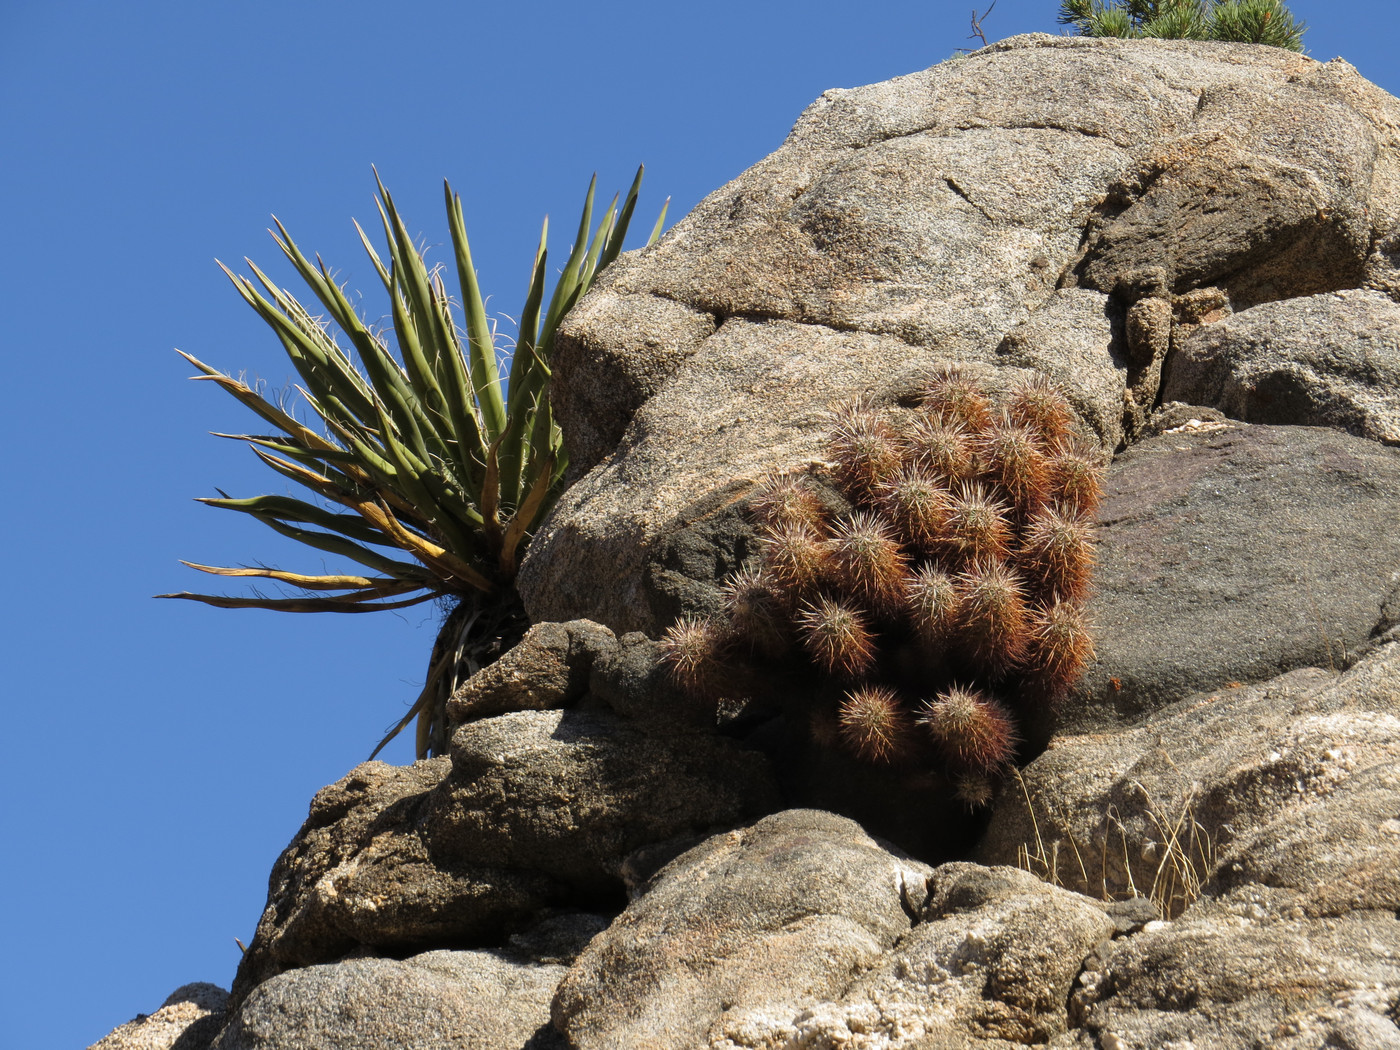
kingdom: Plantae
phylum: Tracheophyta
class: Magnoliopsida
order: Caryophyllales
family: Cactaceae
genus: Echinocereus
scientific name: Echinocereus engelmannii
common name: Engelmann's hedgehog cactus
